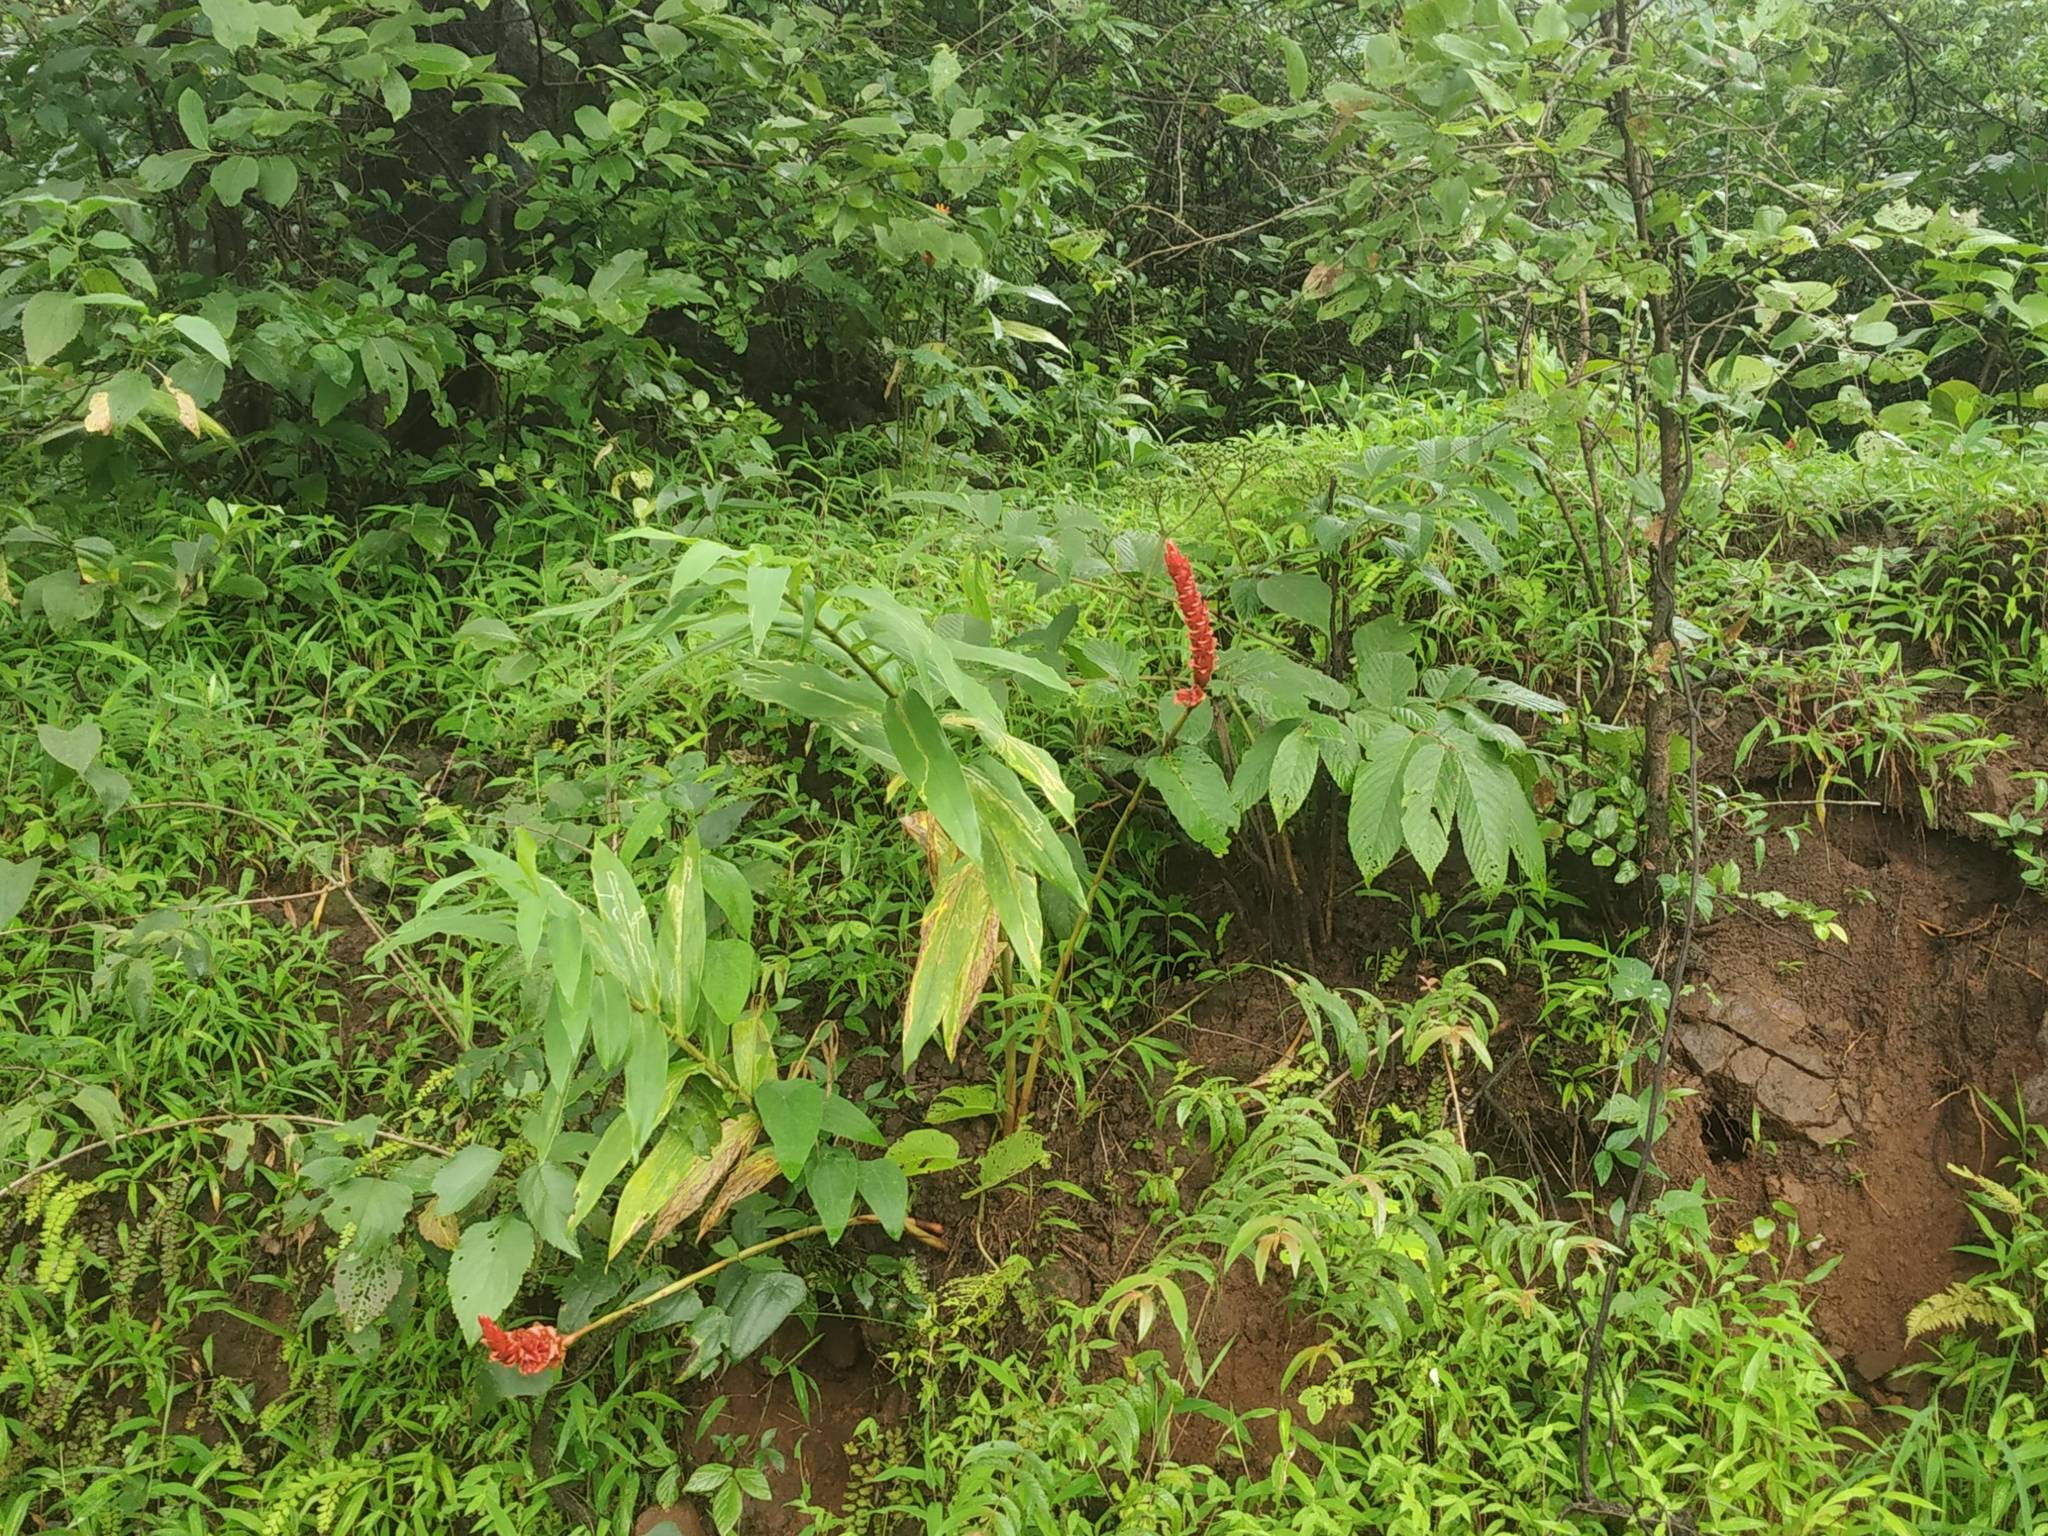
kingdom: Plantae
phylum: Tracheophyta
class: Liliopsida
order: Zingiberales
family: Zingiberaceae
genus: Zingiber
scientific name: Zingiber neesanum
